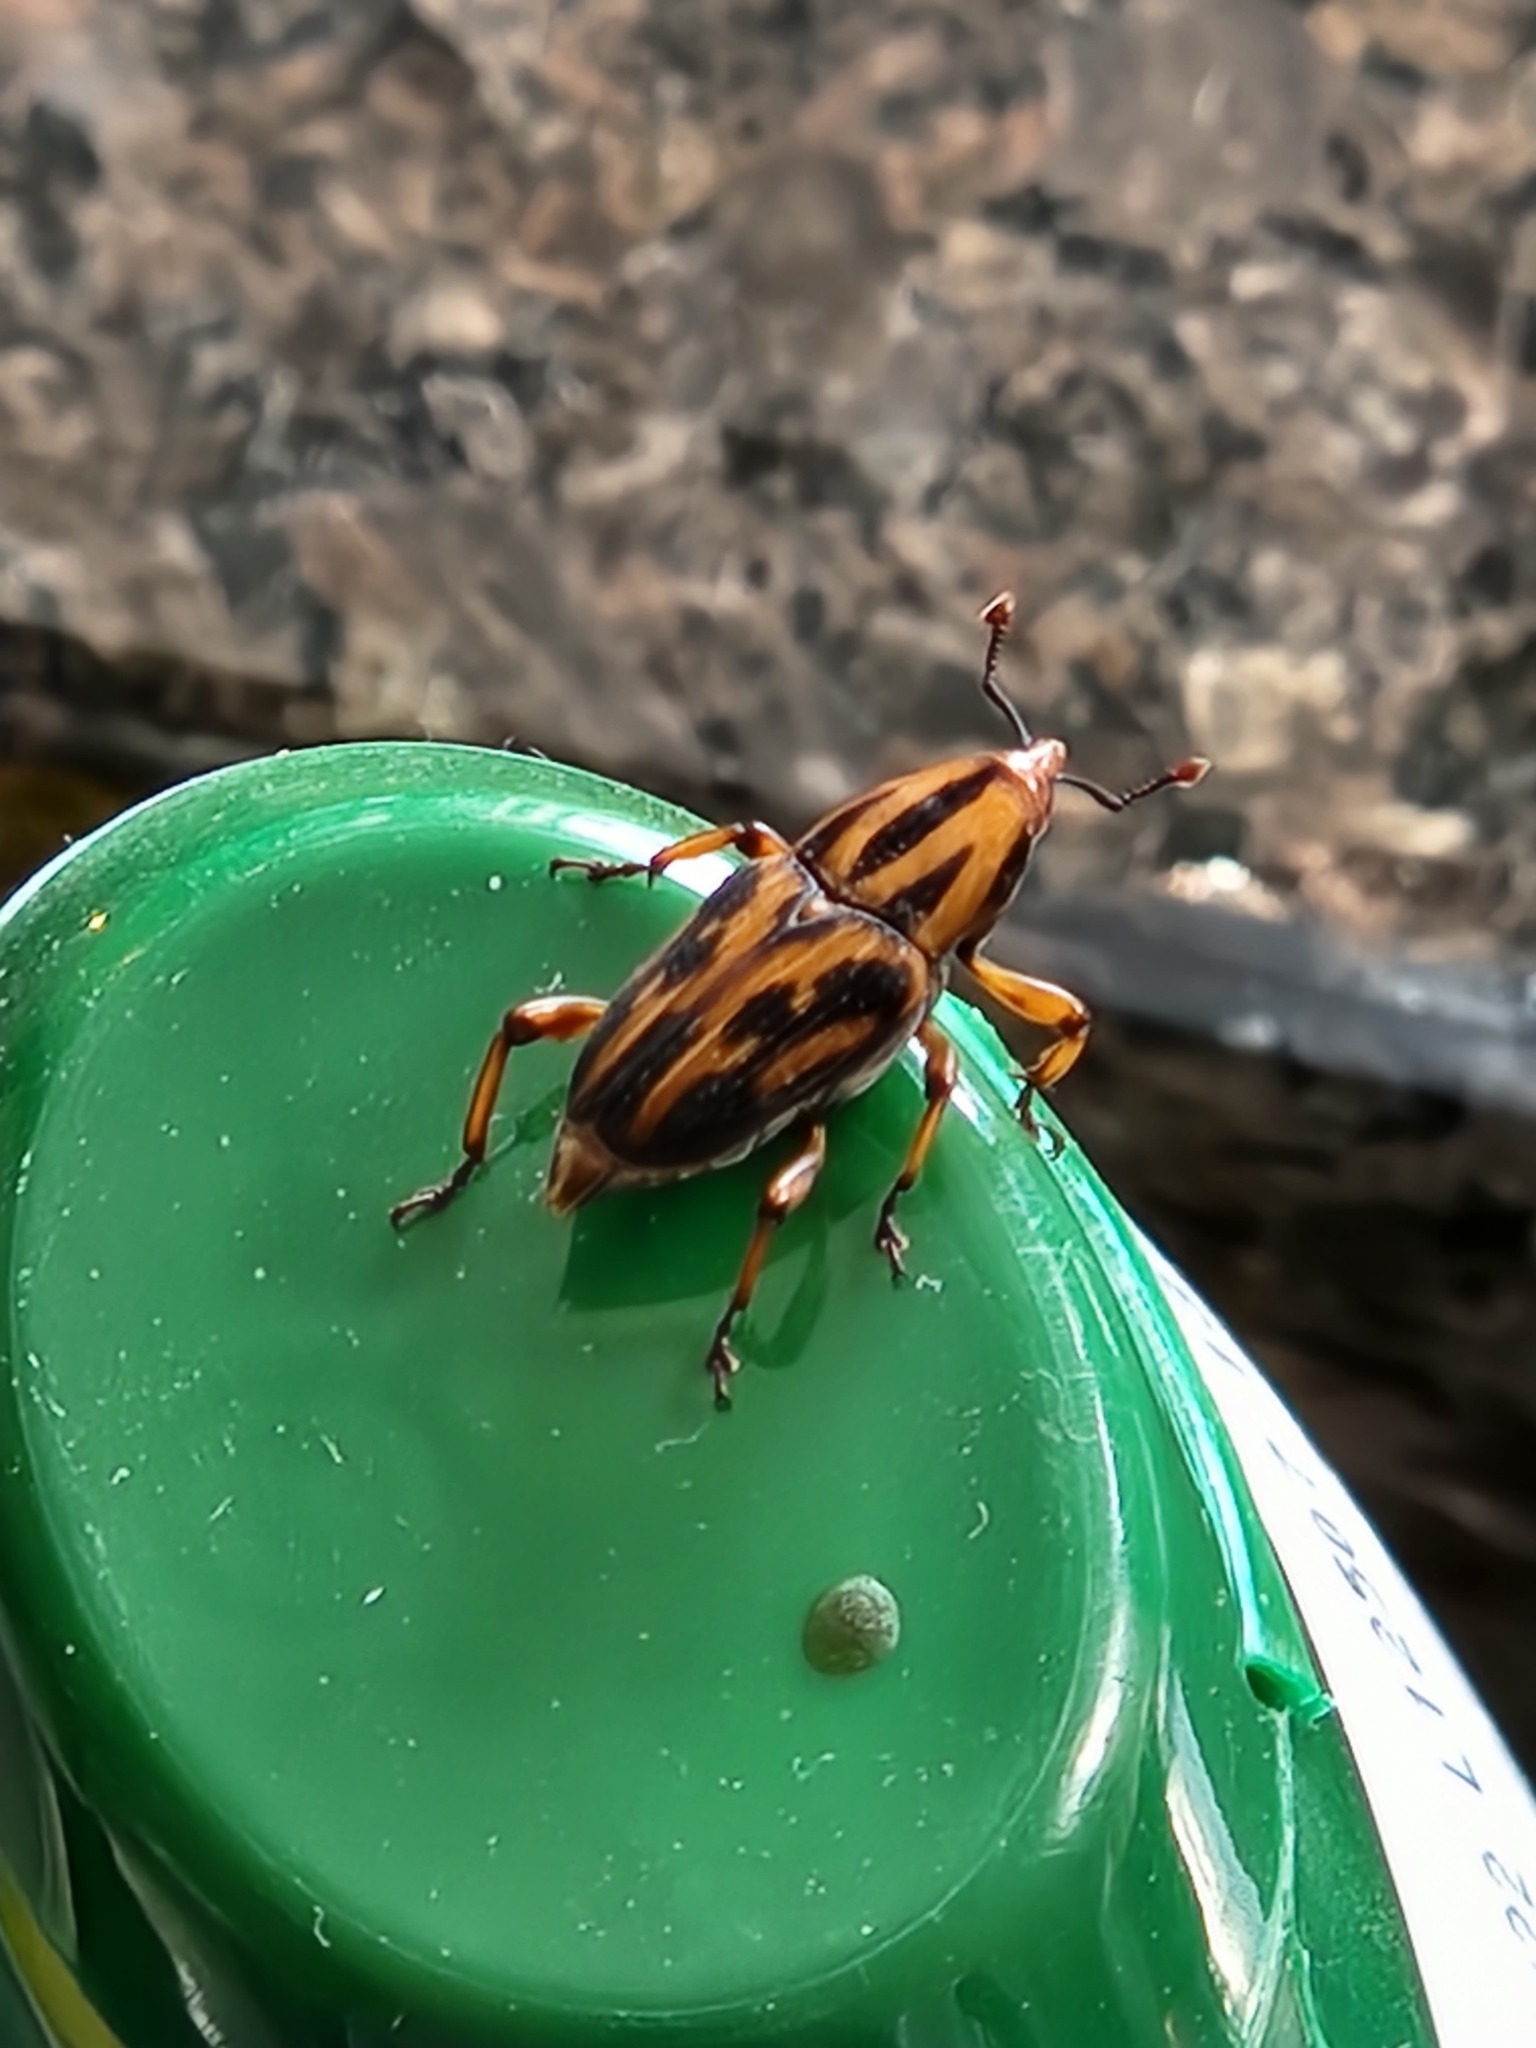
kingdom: Animalia
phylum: Arthropoda
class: Insecta
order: Coleoptera
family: Dryophthoridae
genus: Metamasius
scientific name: Metamasius hemipterus
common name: Weevil
